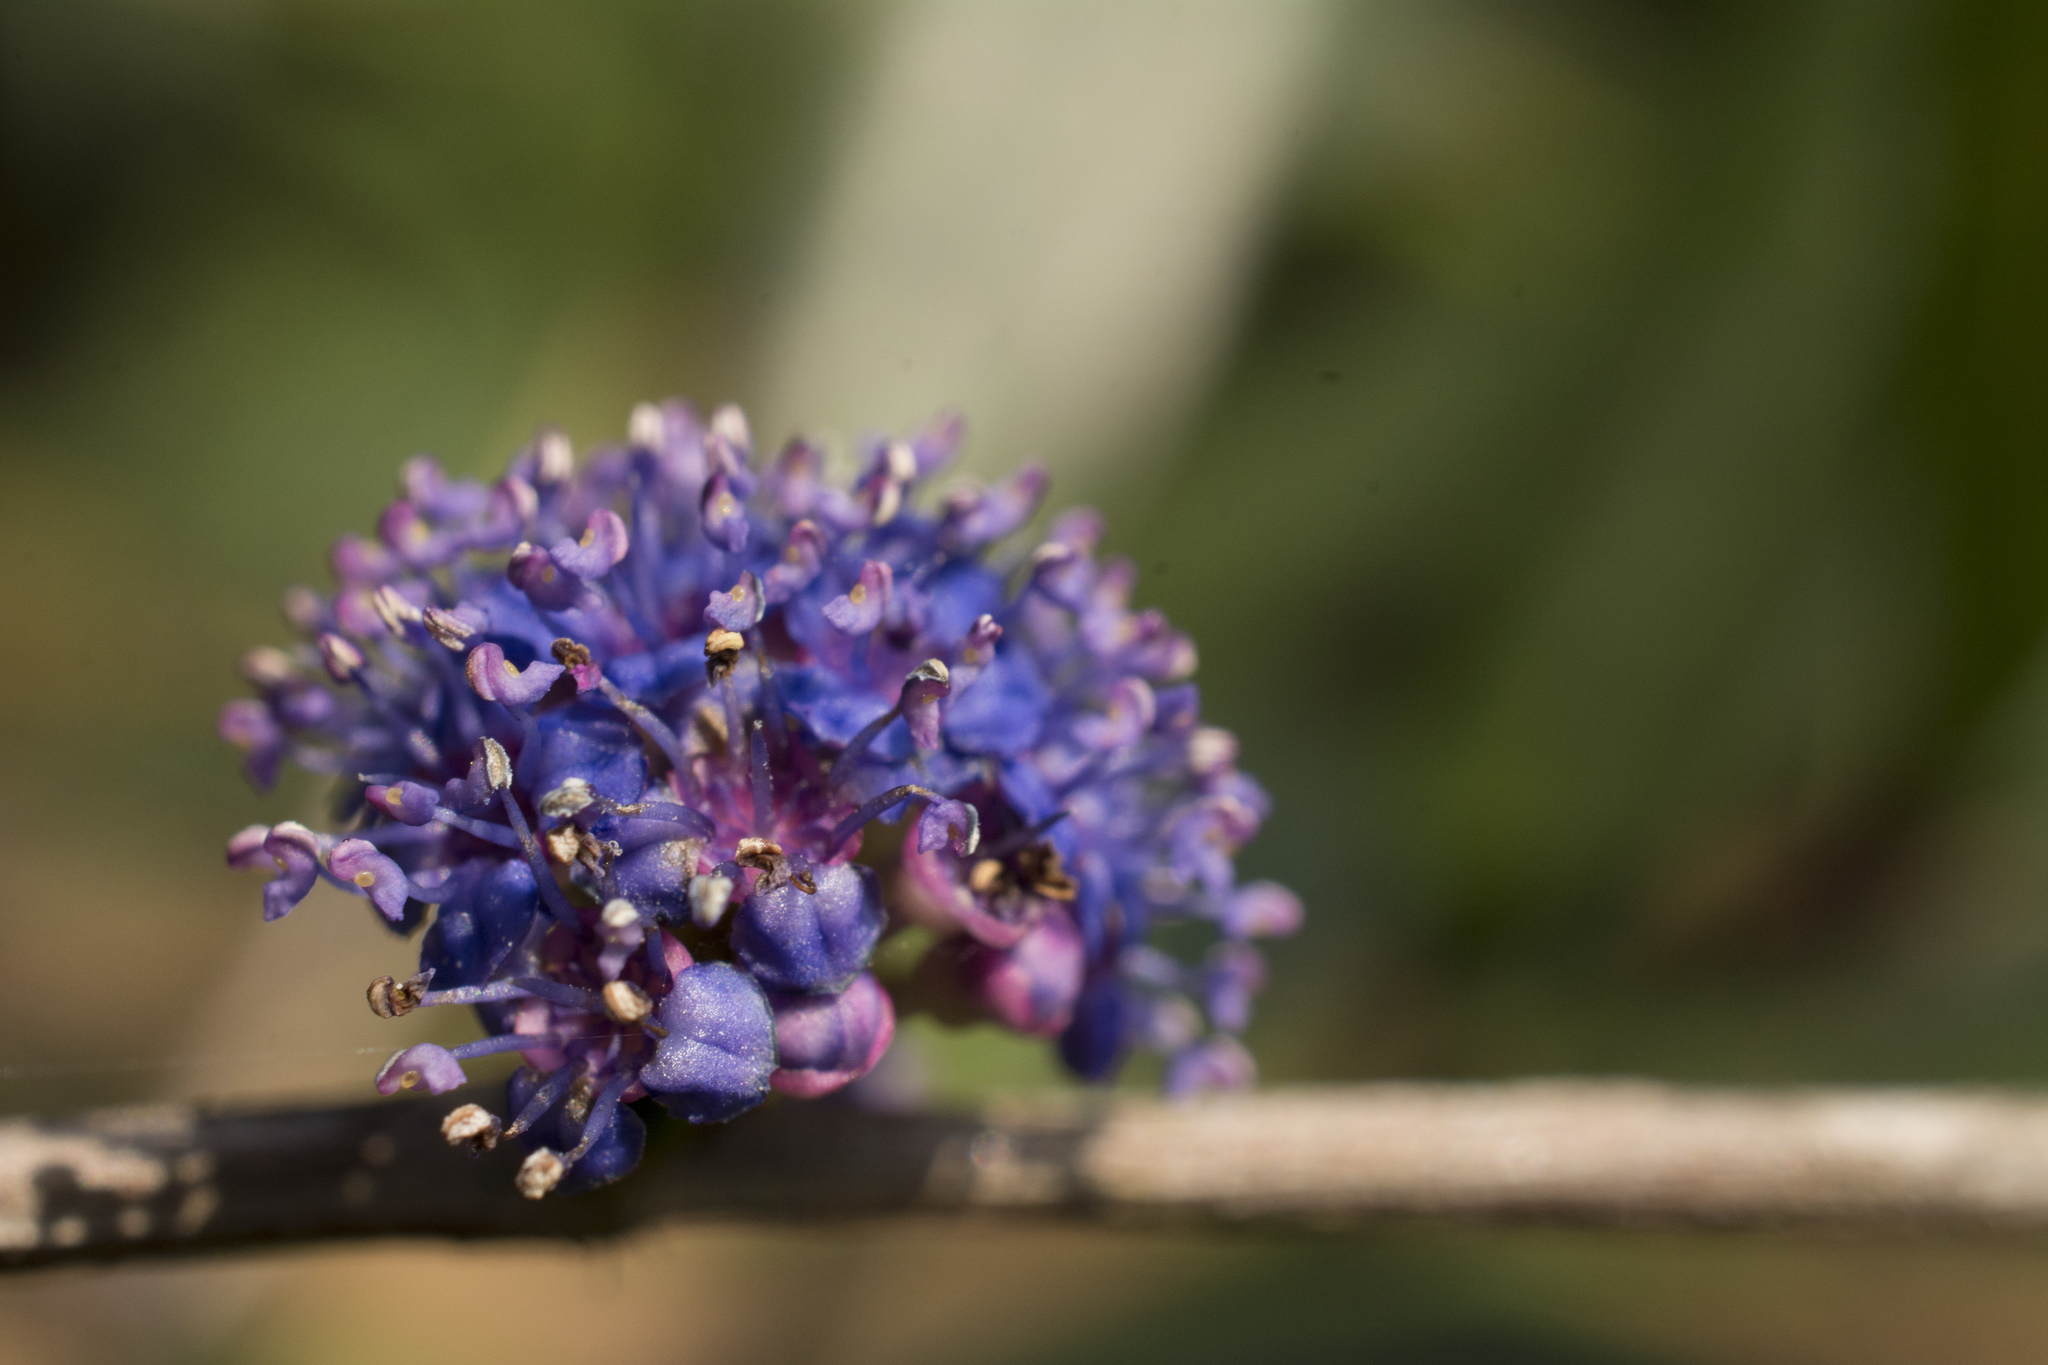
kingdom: Plantae
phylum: Tracheophyta
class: Magnoliopsida
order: Myrtales
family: Melastomataceae
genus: Memecylon
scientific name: Memecylon angustifolium
